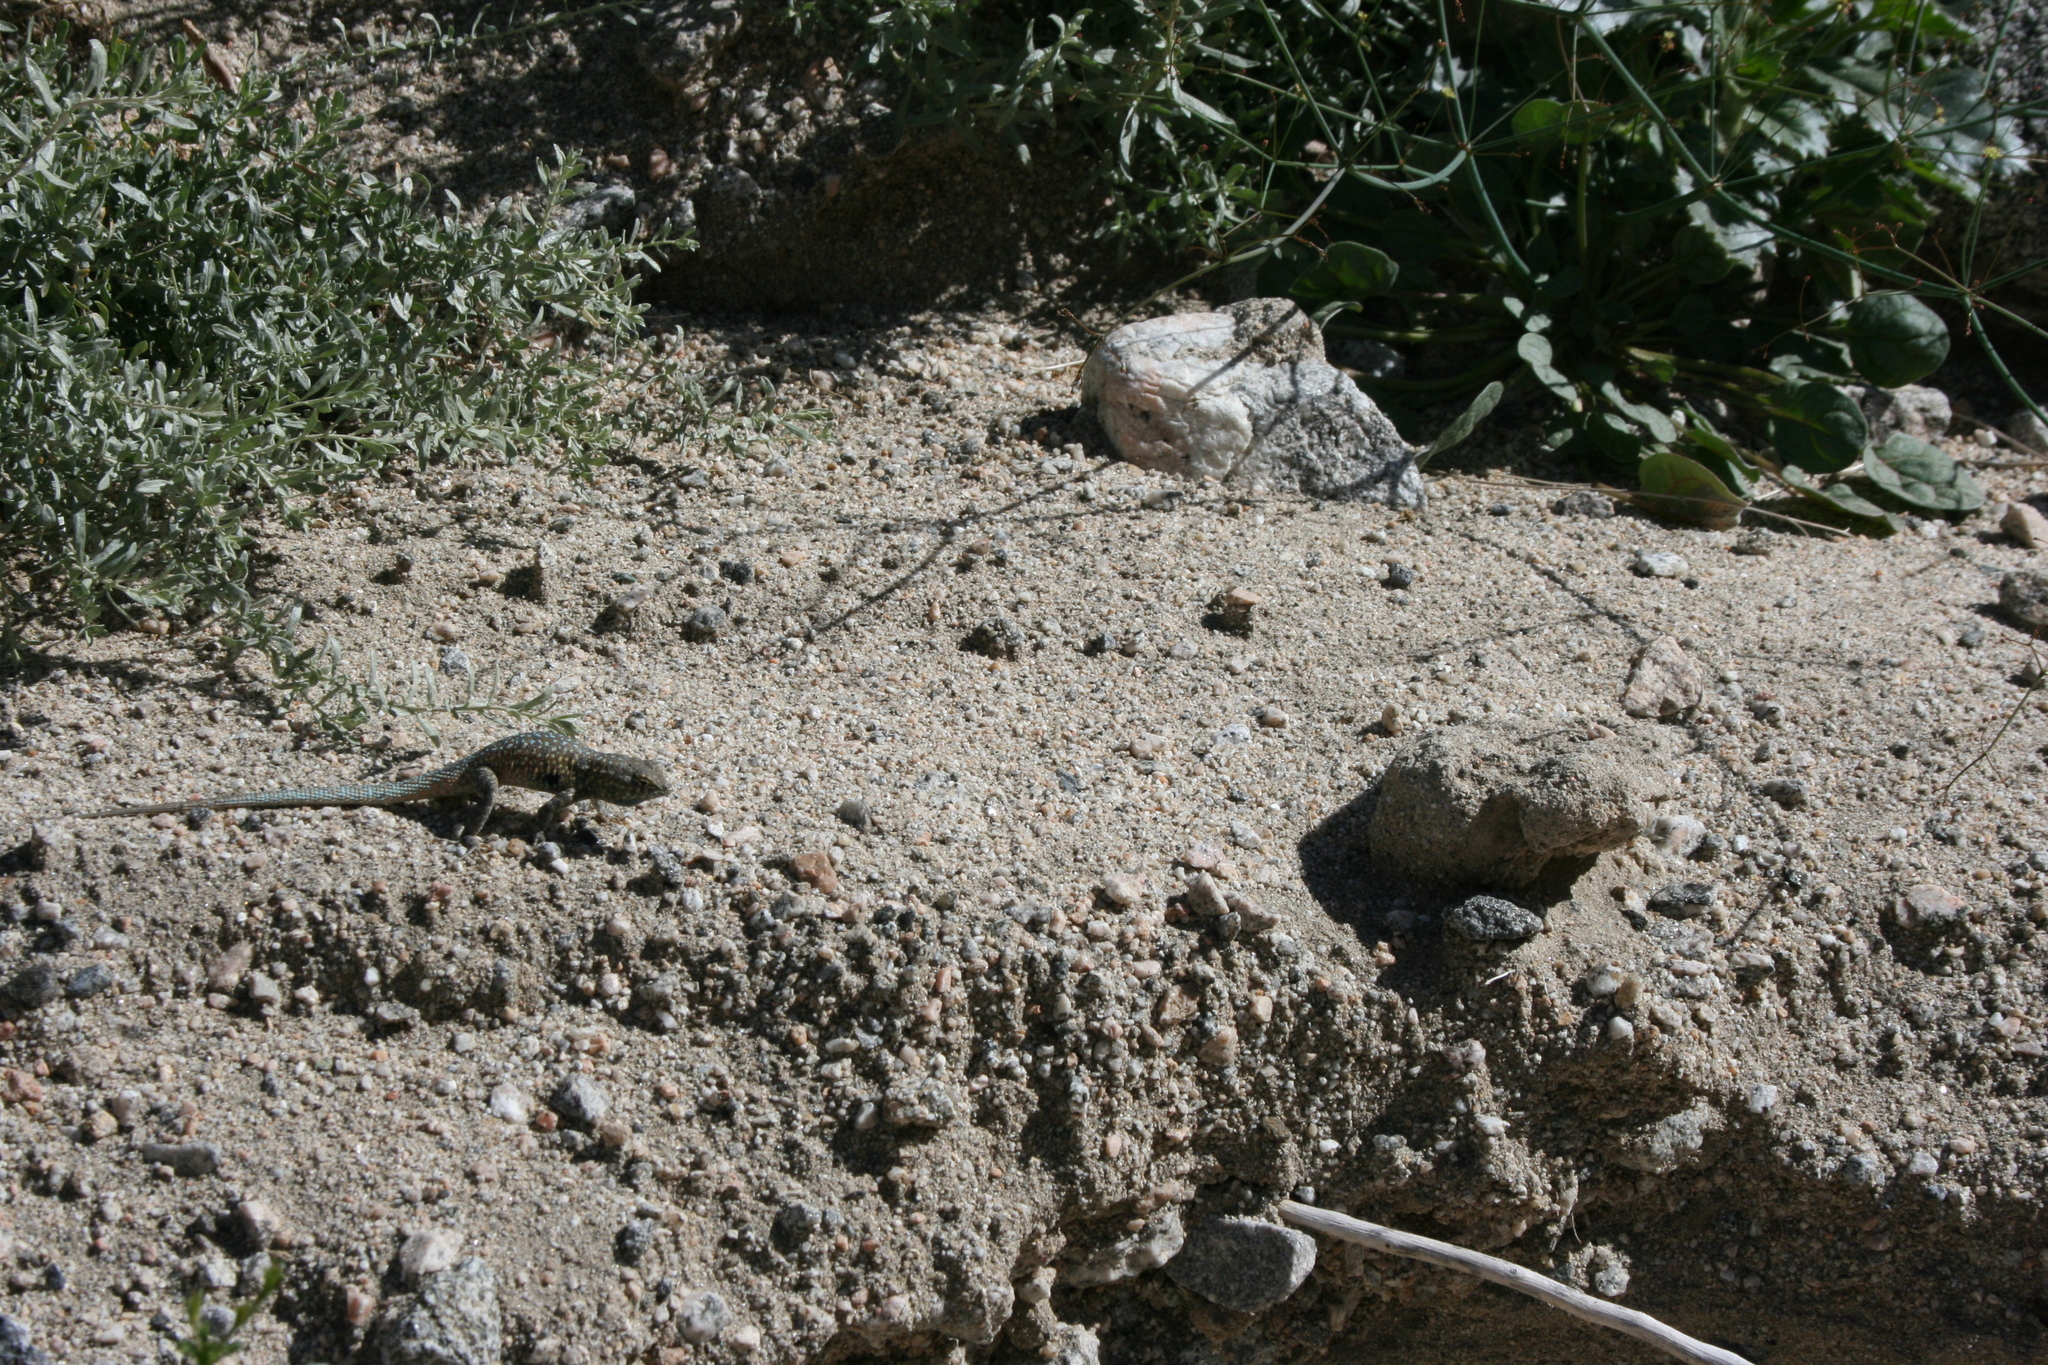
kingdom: Animalia
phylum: Chordata
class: Squamata
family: Phrynosomatidae
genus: Uta
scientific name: Uta stansburiana
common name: Side-blotched lizard
